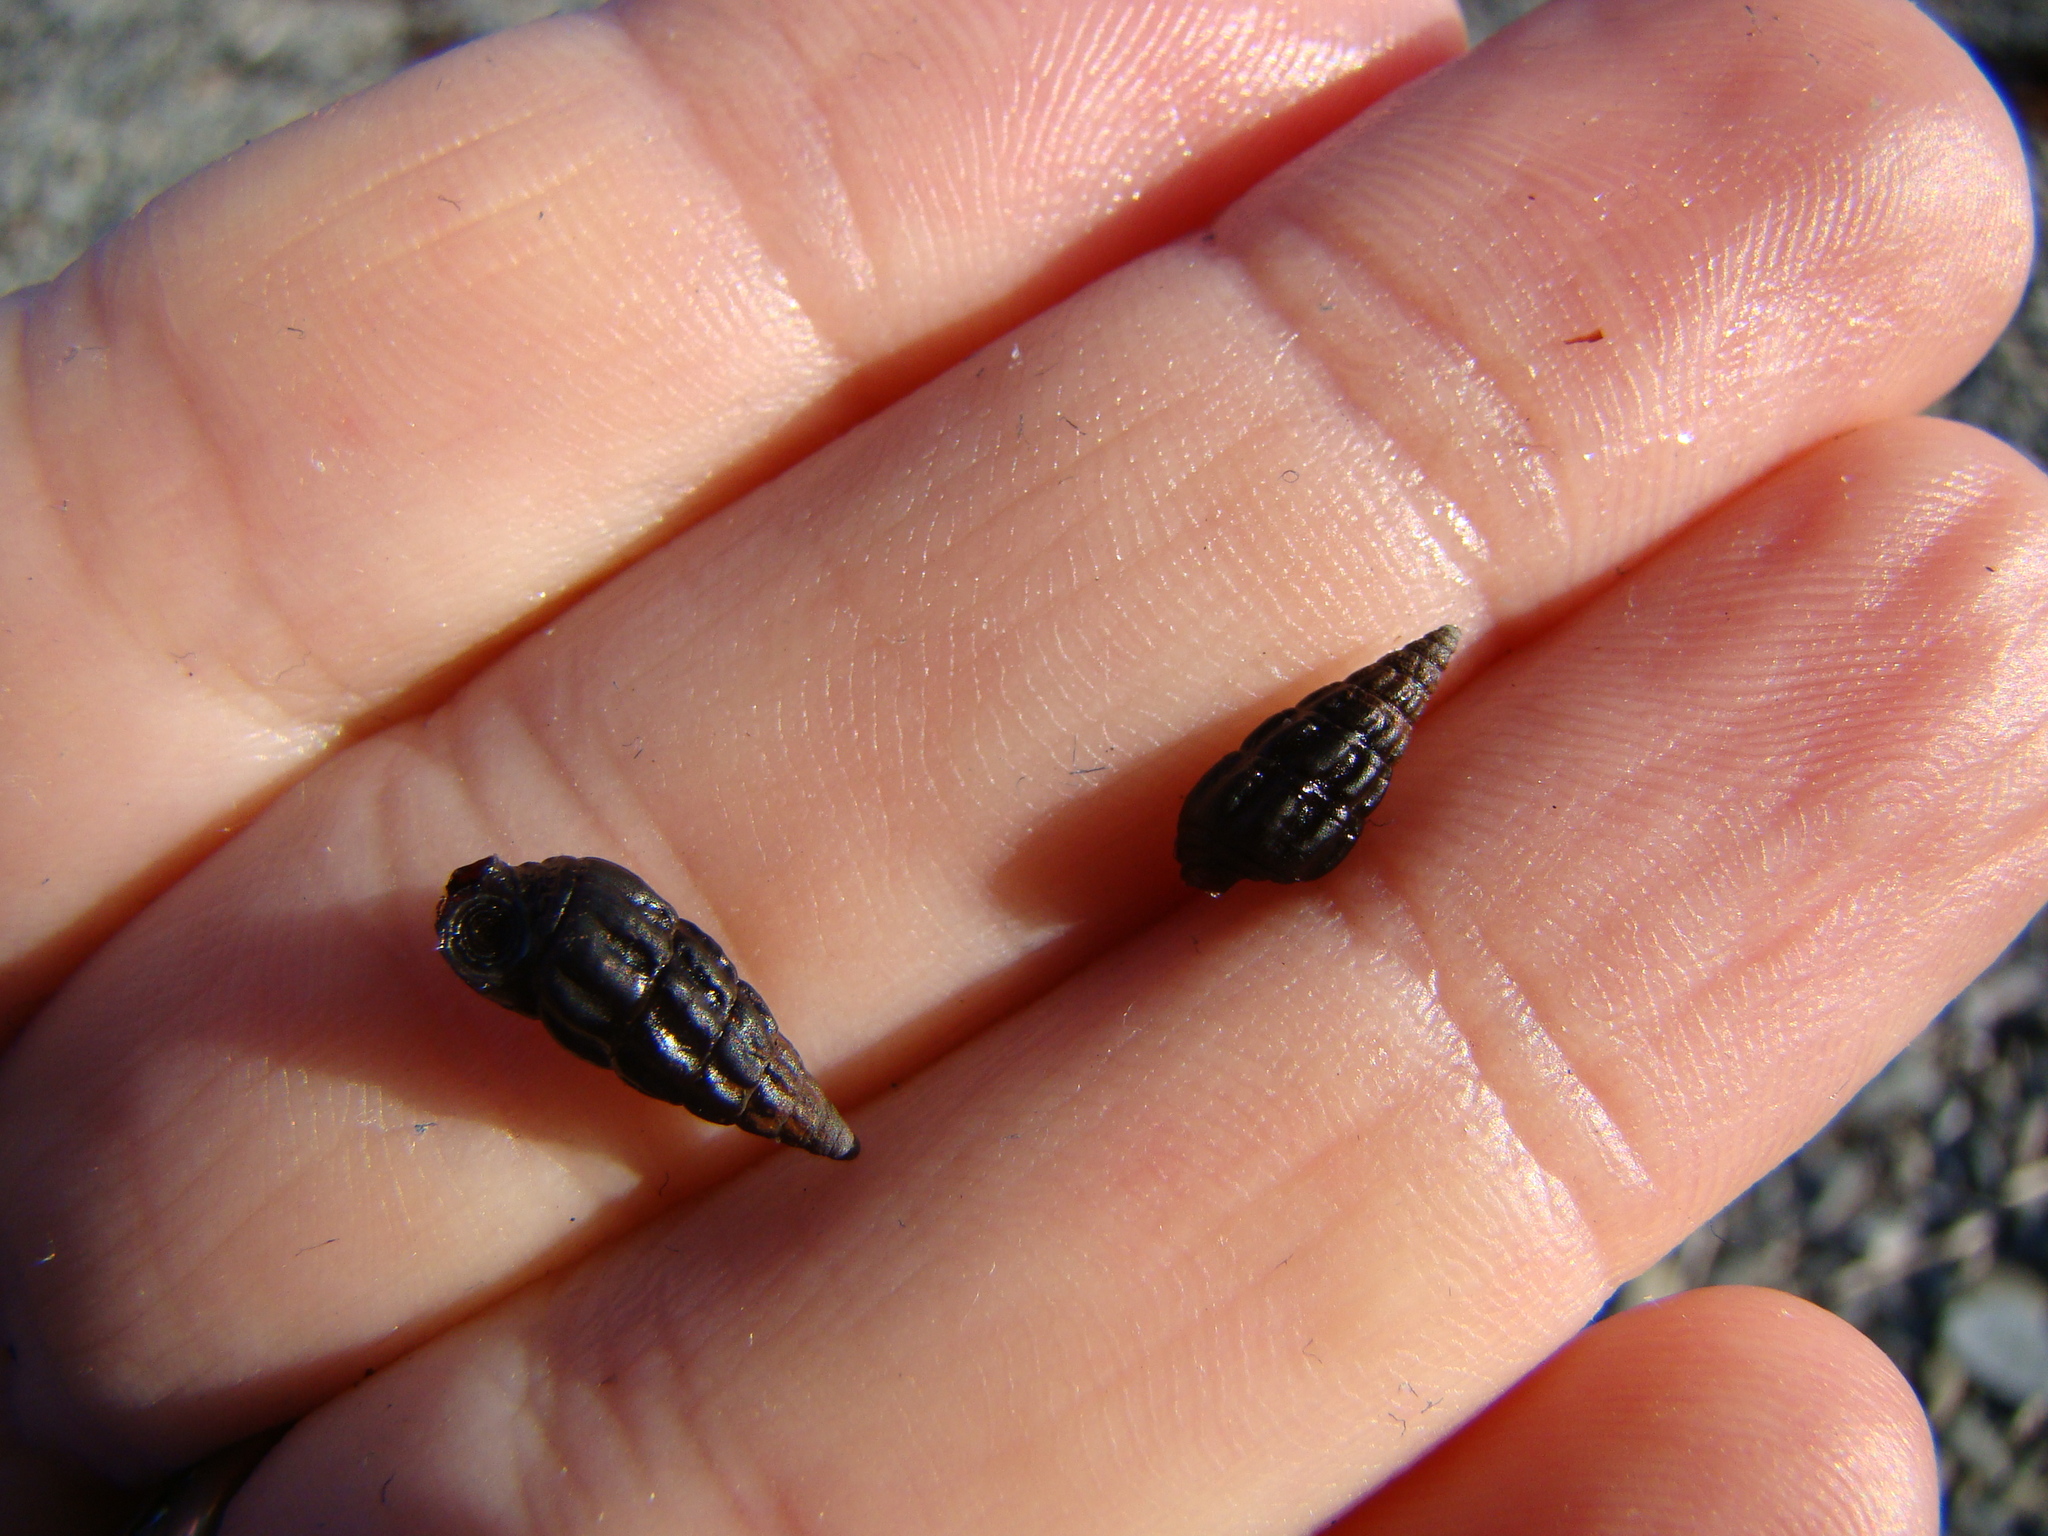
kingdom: Animalia
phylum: Mollusca
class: Gastropoda
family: Batillariidae
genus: Zeacumantus
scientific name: Zeacumantus subcarinatus
